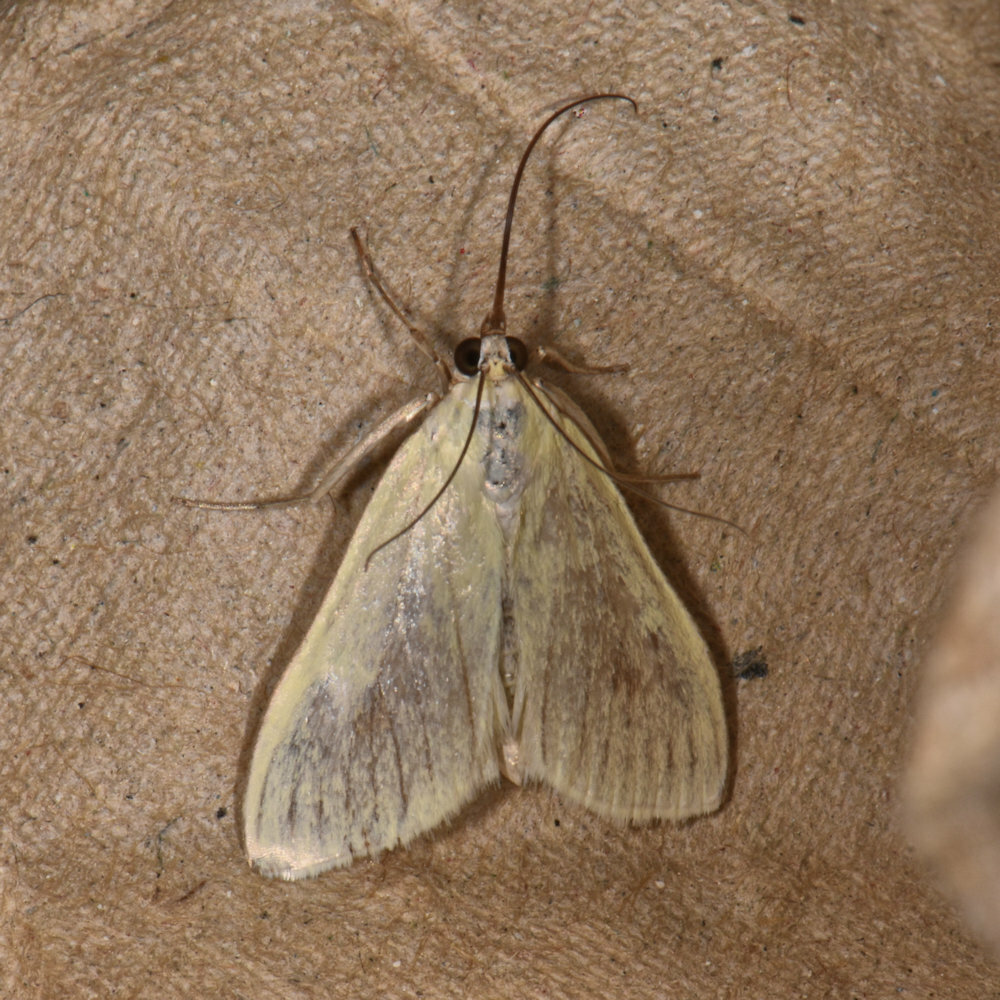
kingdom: Animalia
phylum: Arthropoda
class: Insecta
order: Lepidoptera
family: Crambidae
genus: Sitochroa
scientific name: Sitochroa palealis
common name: Greenish-yellow sitochroa moth
